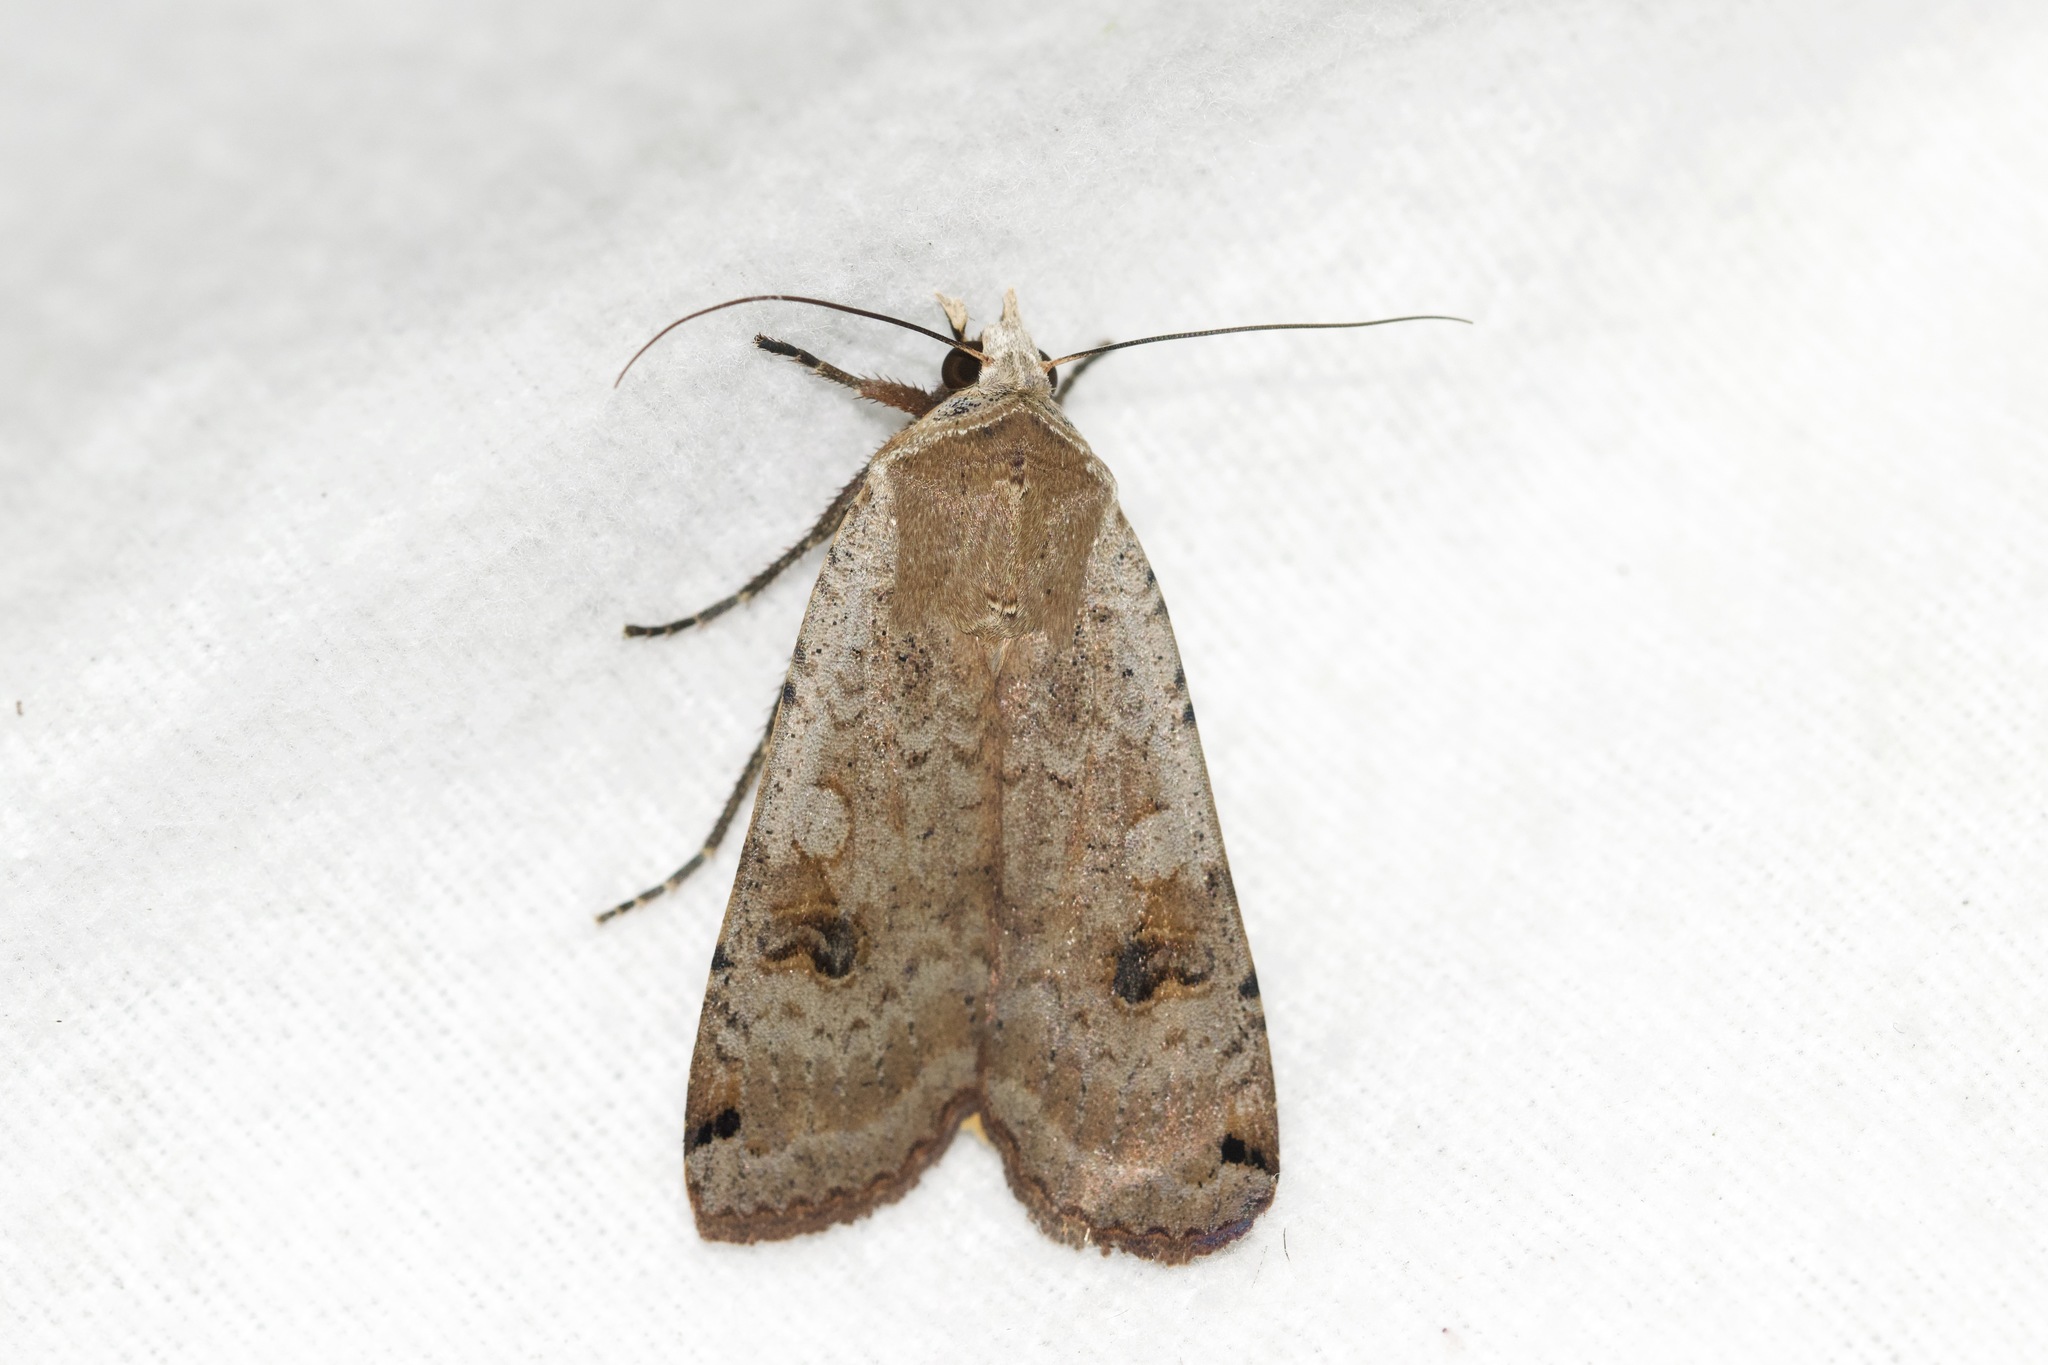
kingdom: Animalia
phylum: Arthropoda
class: Insecta
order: Lepidoptera
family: Noctuidae
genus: Noctua
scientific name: Noctua pronuba
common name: Large yellow underwing
